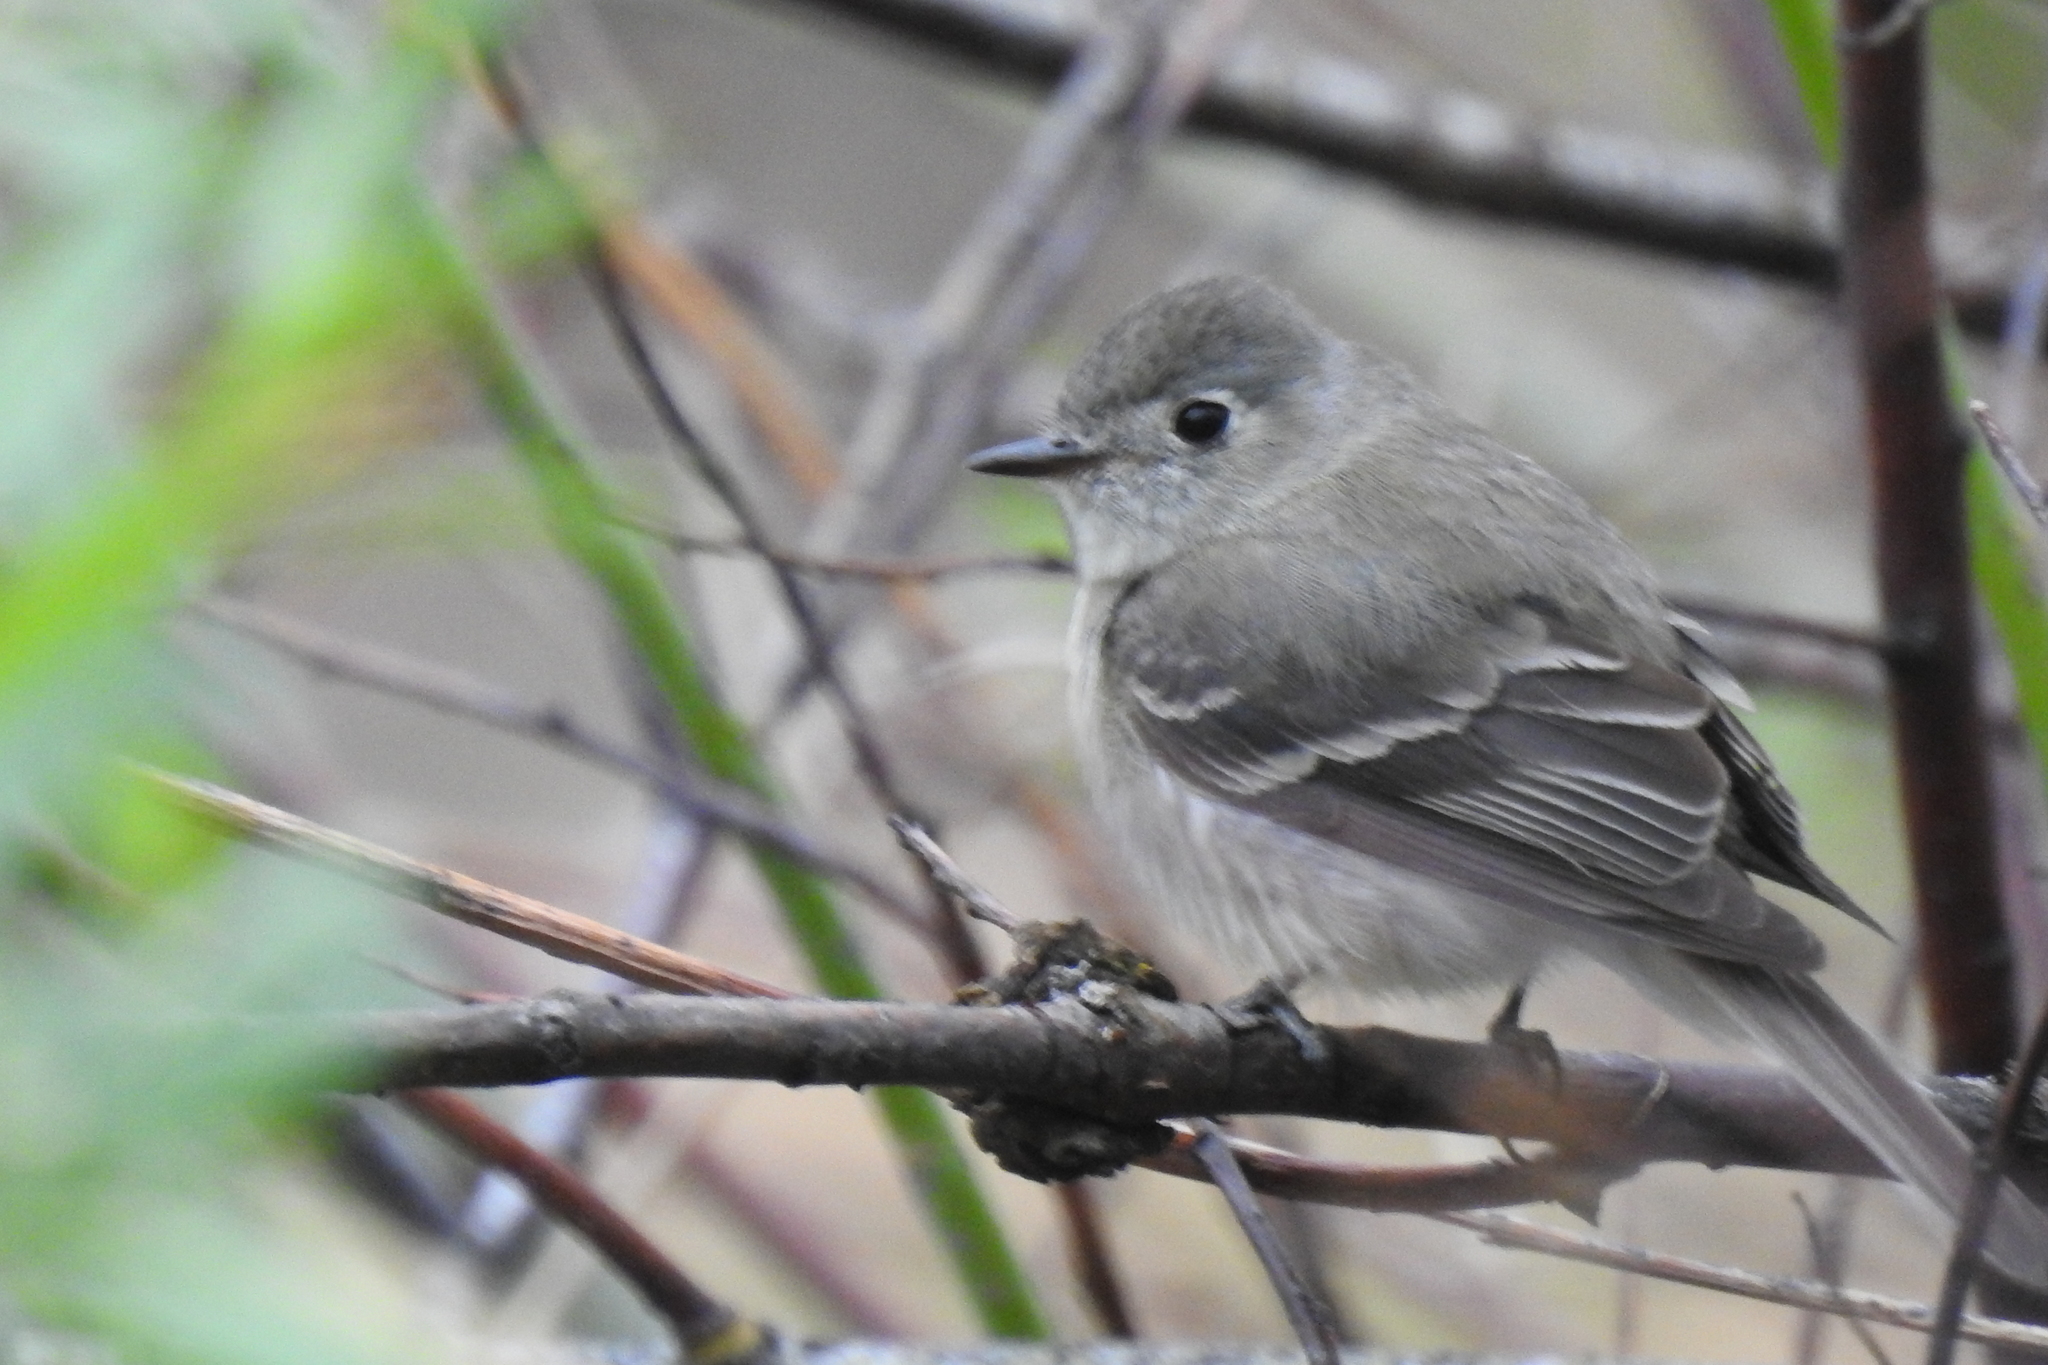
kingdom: Animalia
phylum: Chordata
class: Aves
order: Passeriformes
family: Tyrannidae
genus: Empidonax
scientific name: Empidonax oberholseri
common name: Dusky flycatcher
